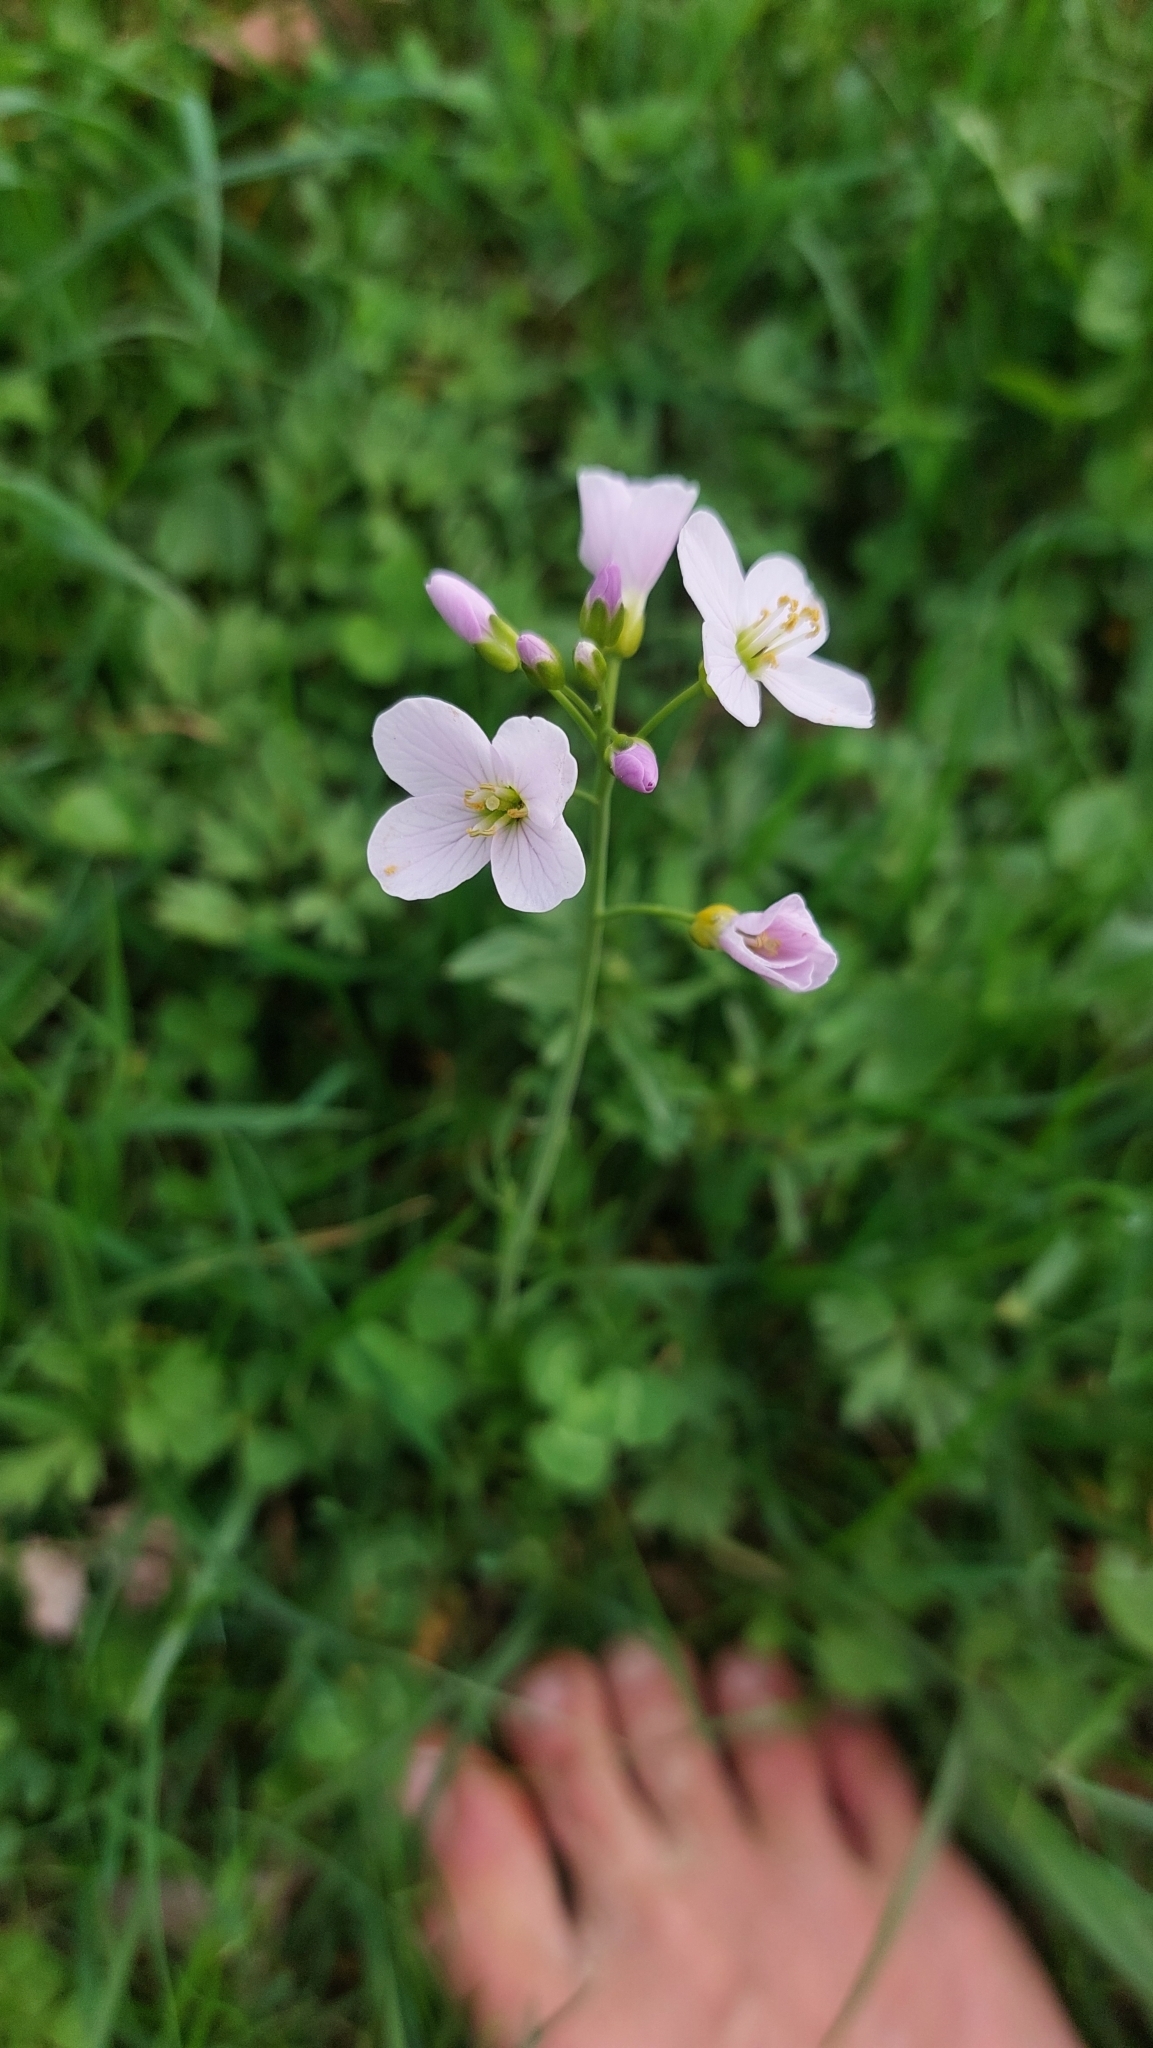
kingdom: Plantae
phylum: Tracheophyta
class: Magnoliopsida
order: Brassicales
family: Brassicaceae
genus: Cardamine
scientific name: Cardamine pratensis
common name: Cuckoo flower
